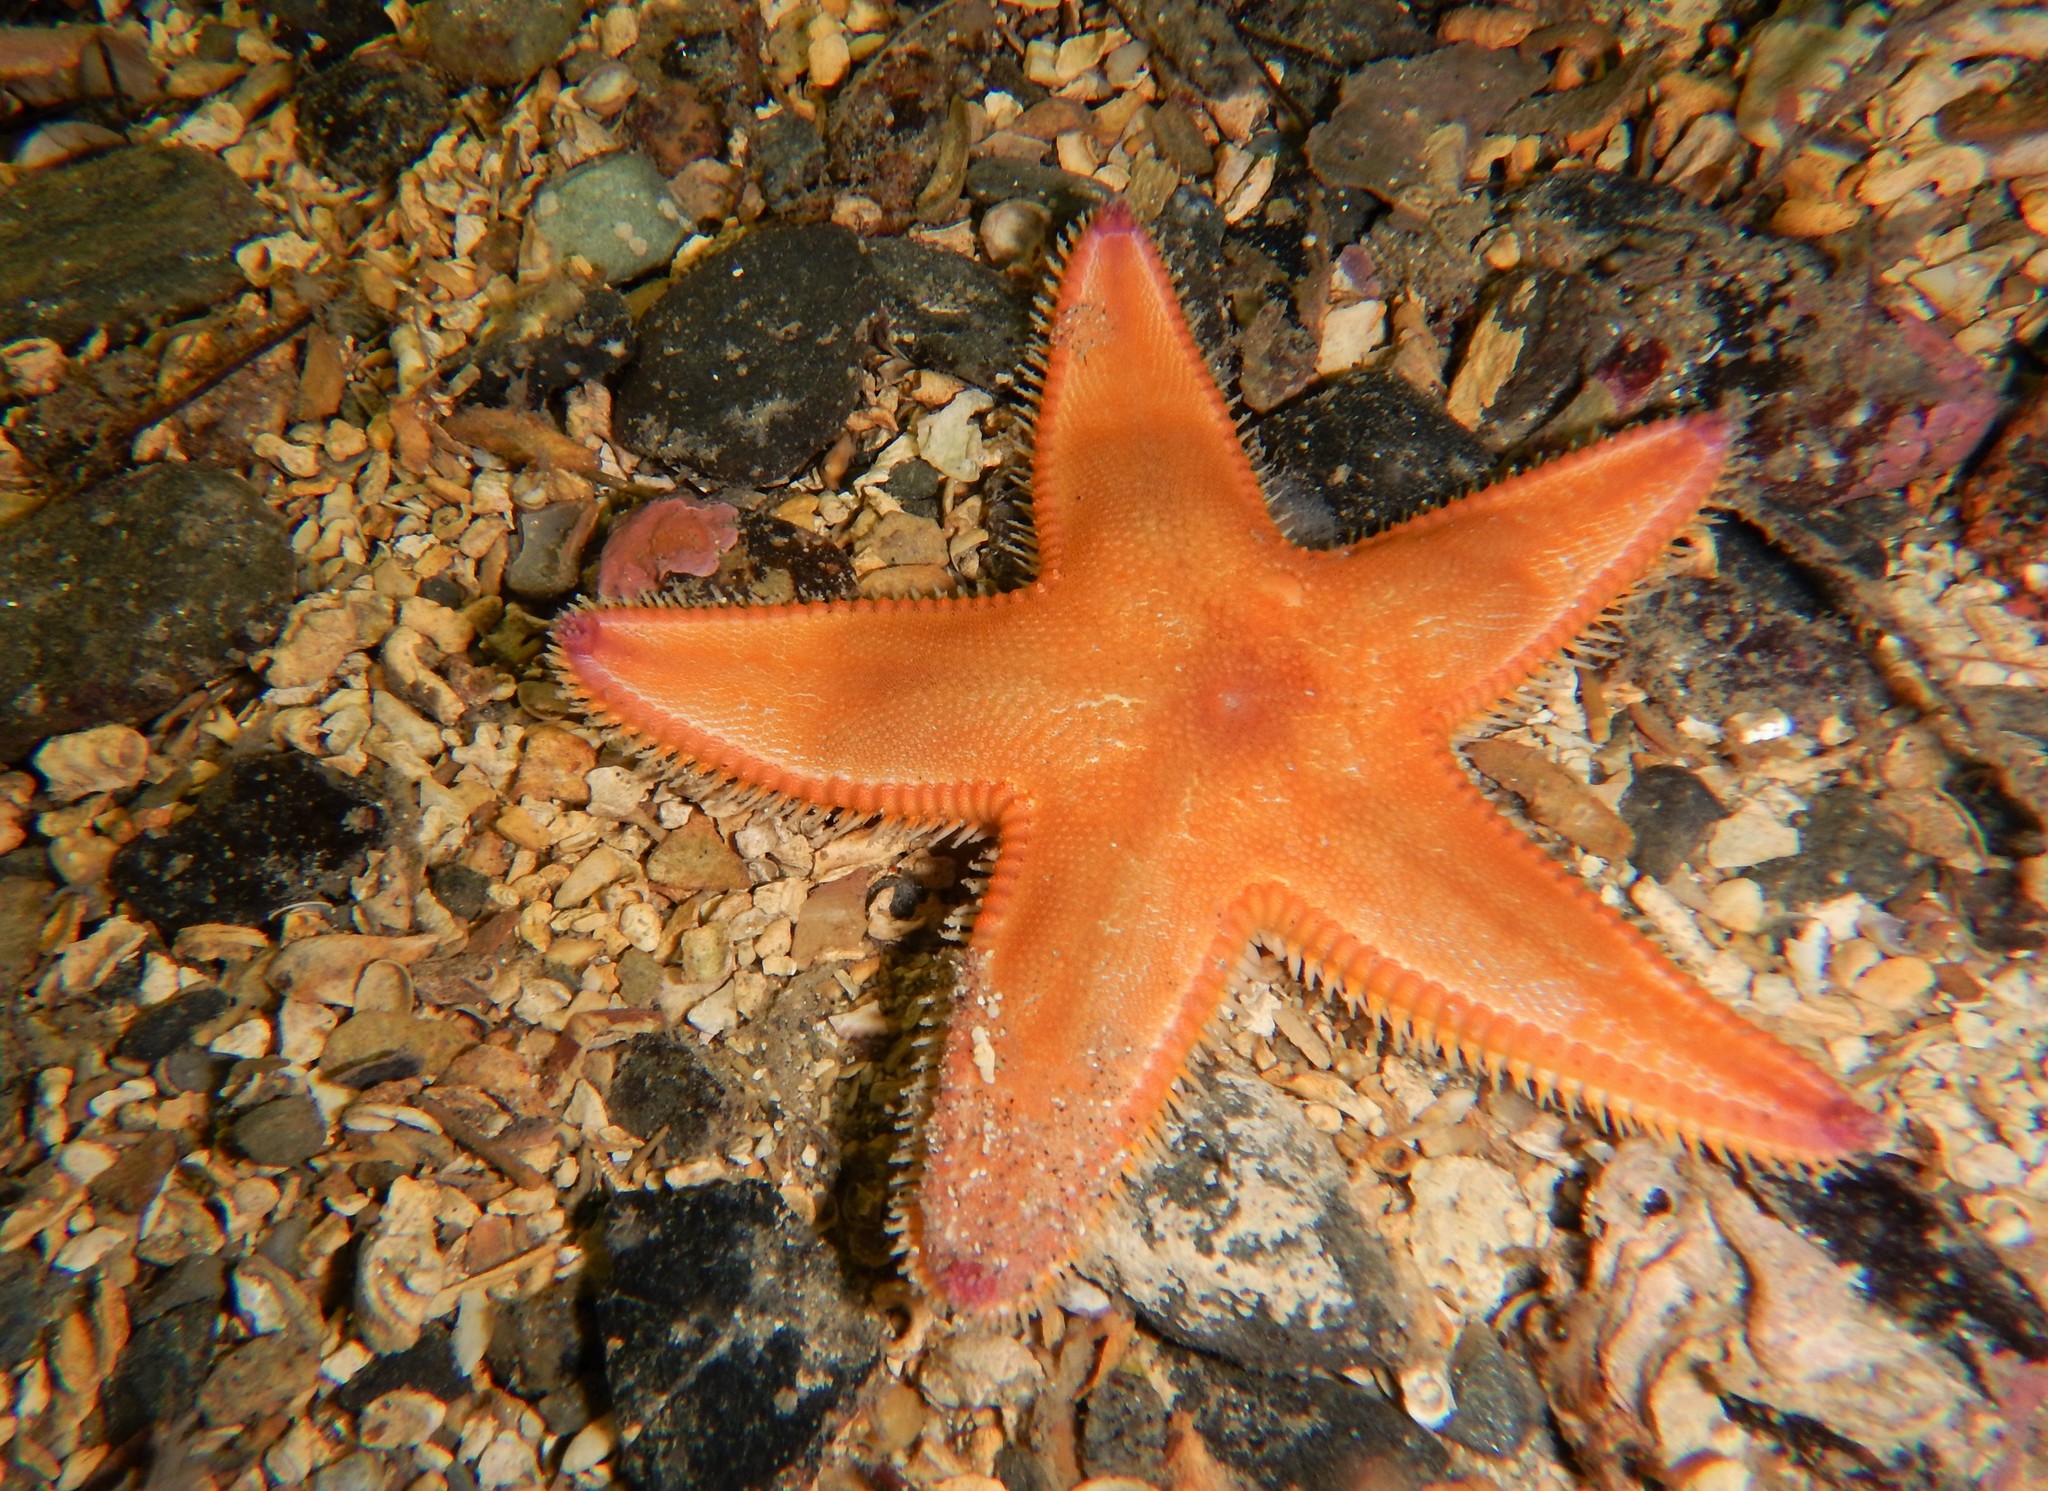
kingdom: Animalia
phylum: Echinodermata
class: Asteroidea
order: Paxillosida
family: Astropectinidae
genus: Astropecten
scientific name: Astropecten irregularis
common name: Sand star
